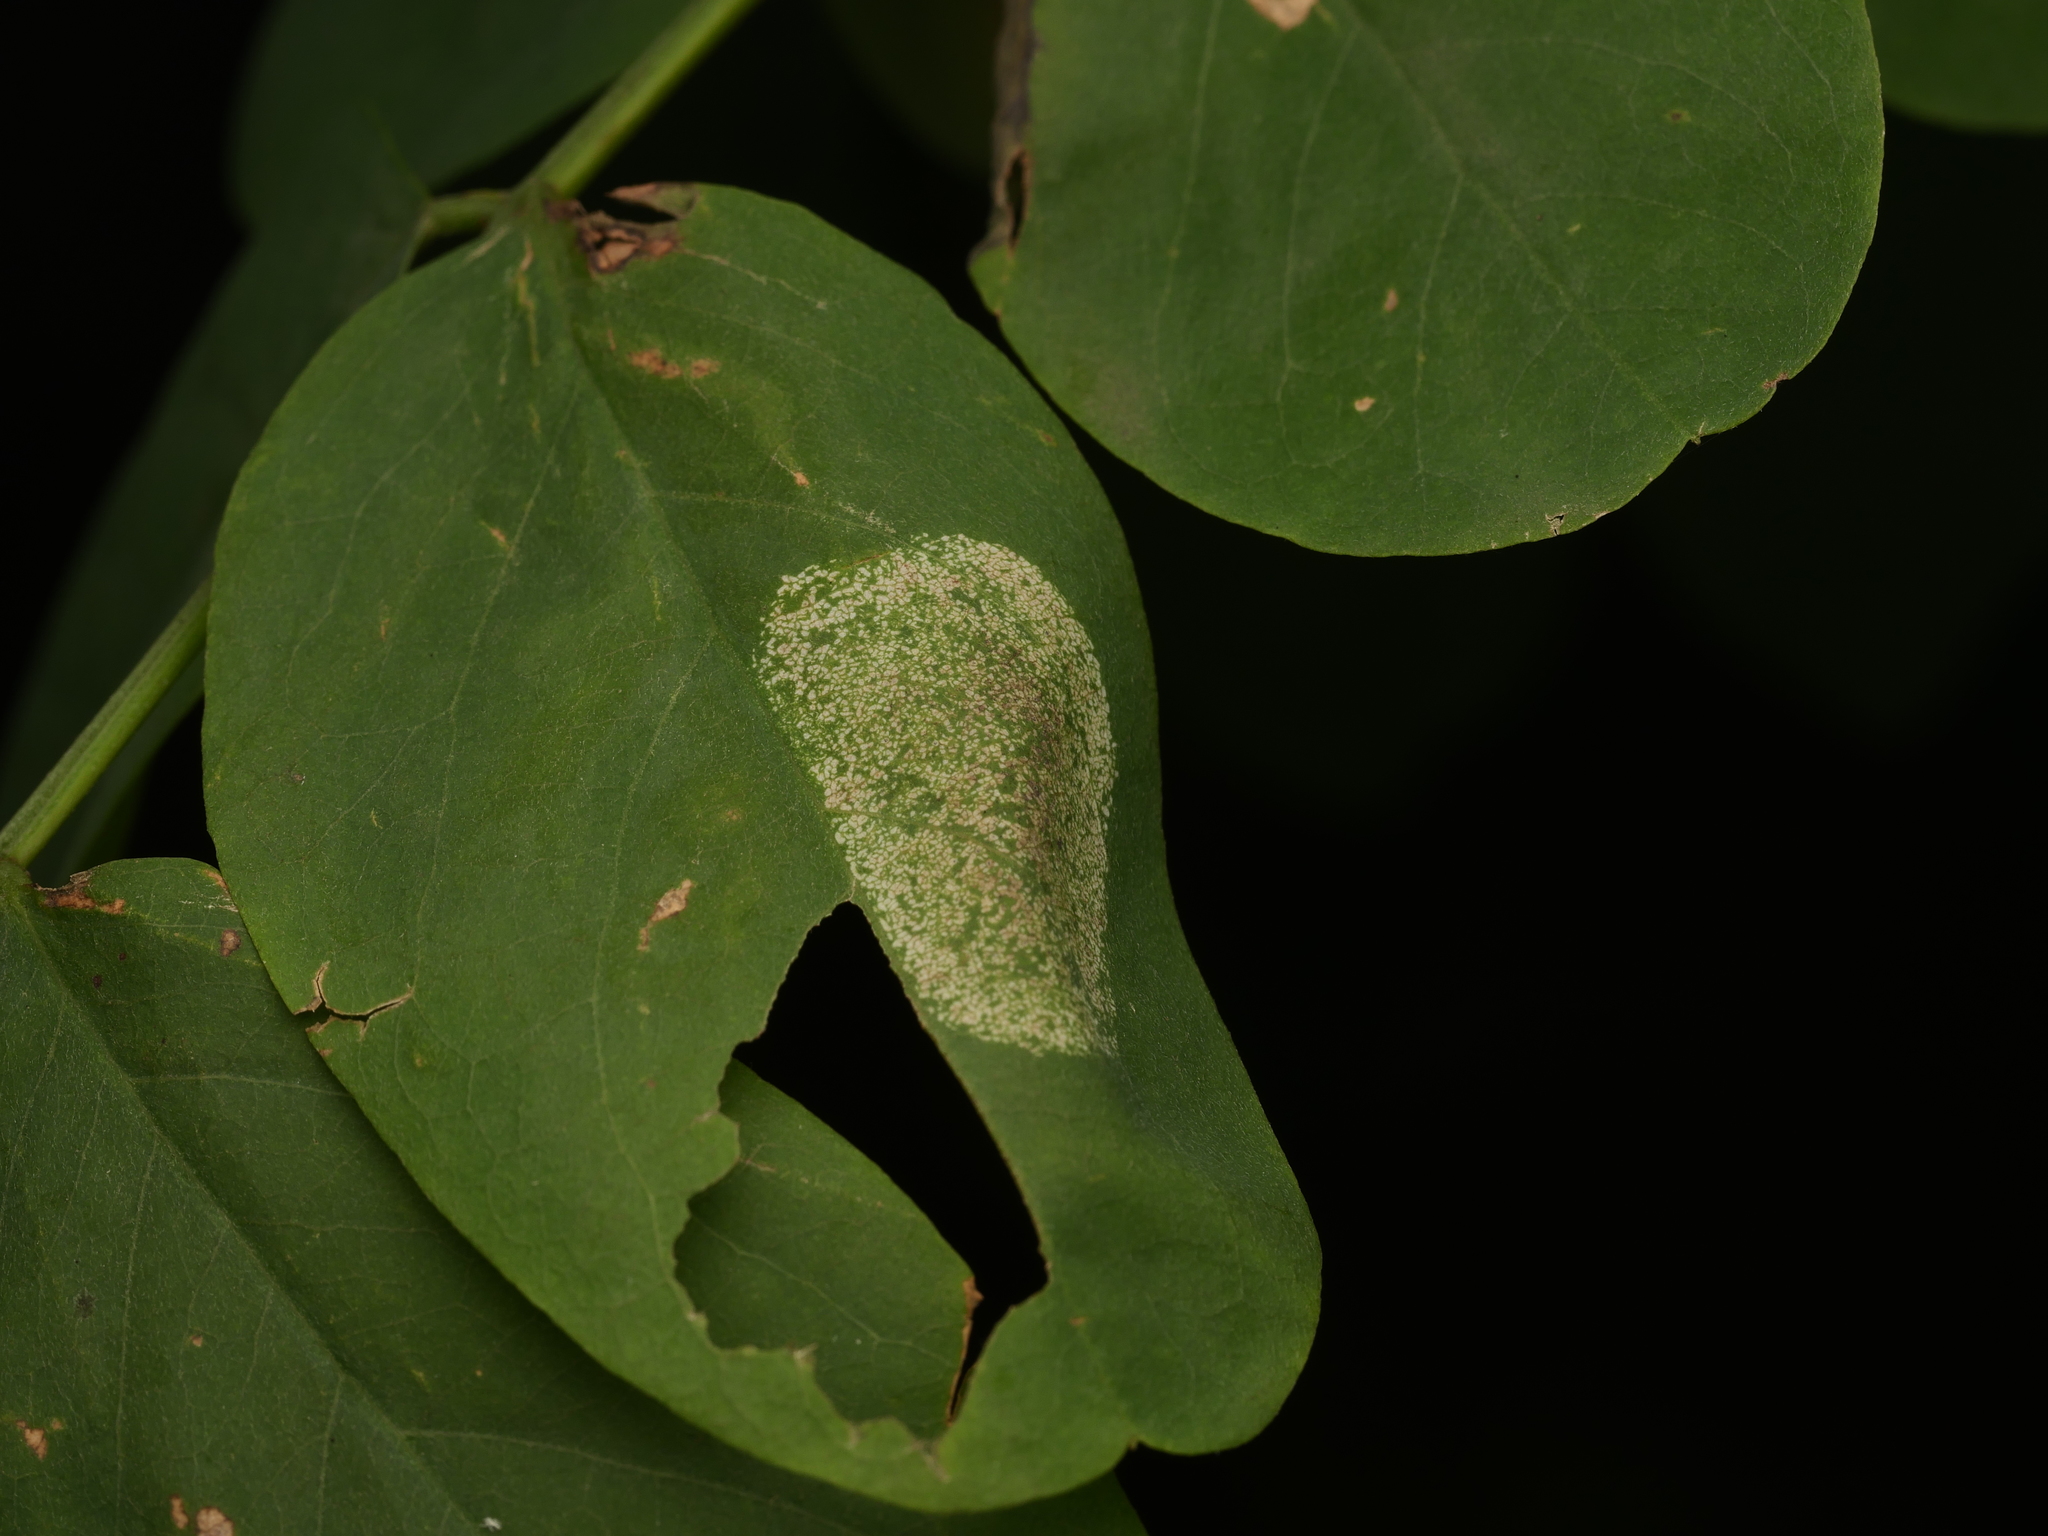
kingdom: Animalia
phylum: Arthropoda
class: Insecta
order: Lepidoptera
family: Gracillariidae
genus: Macrosaccus
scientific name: Macrosaccus robiniella
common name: Leaf blotch miner moth
